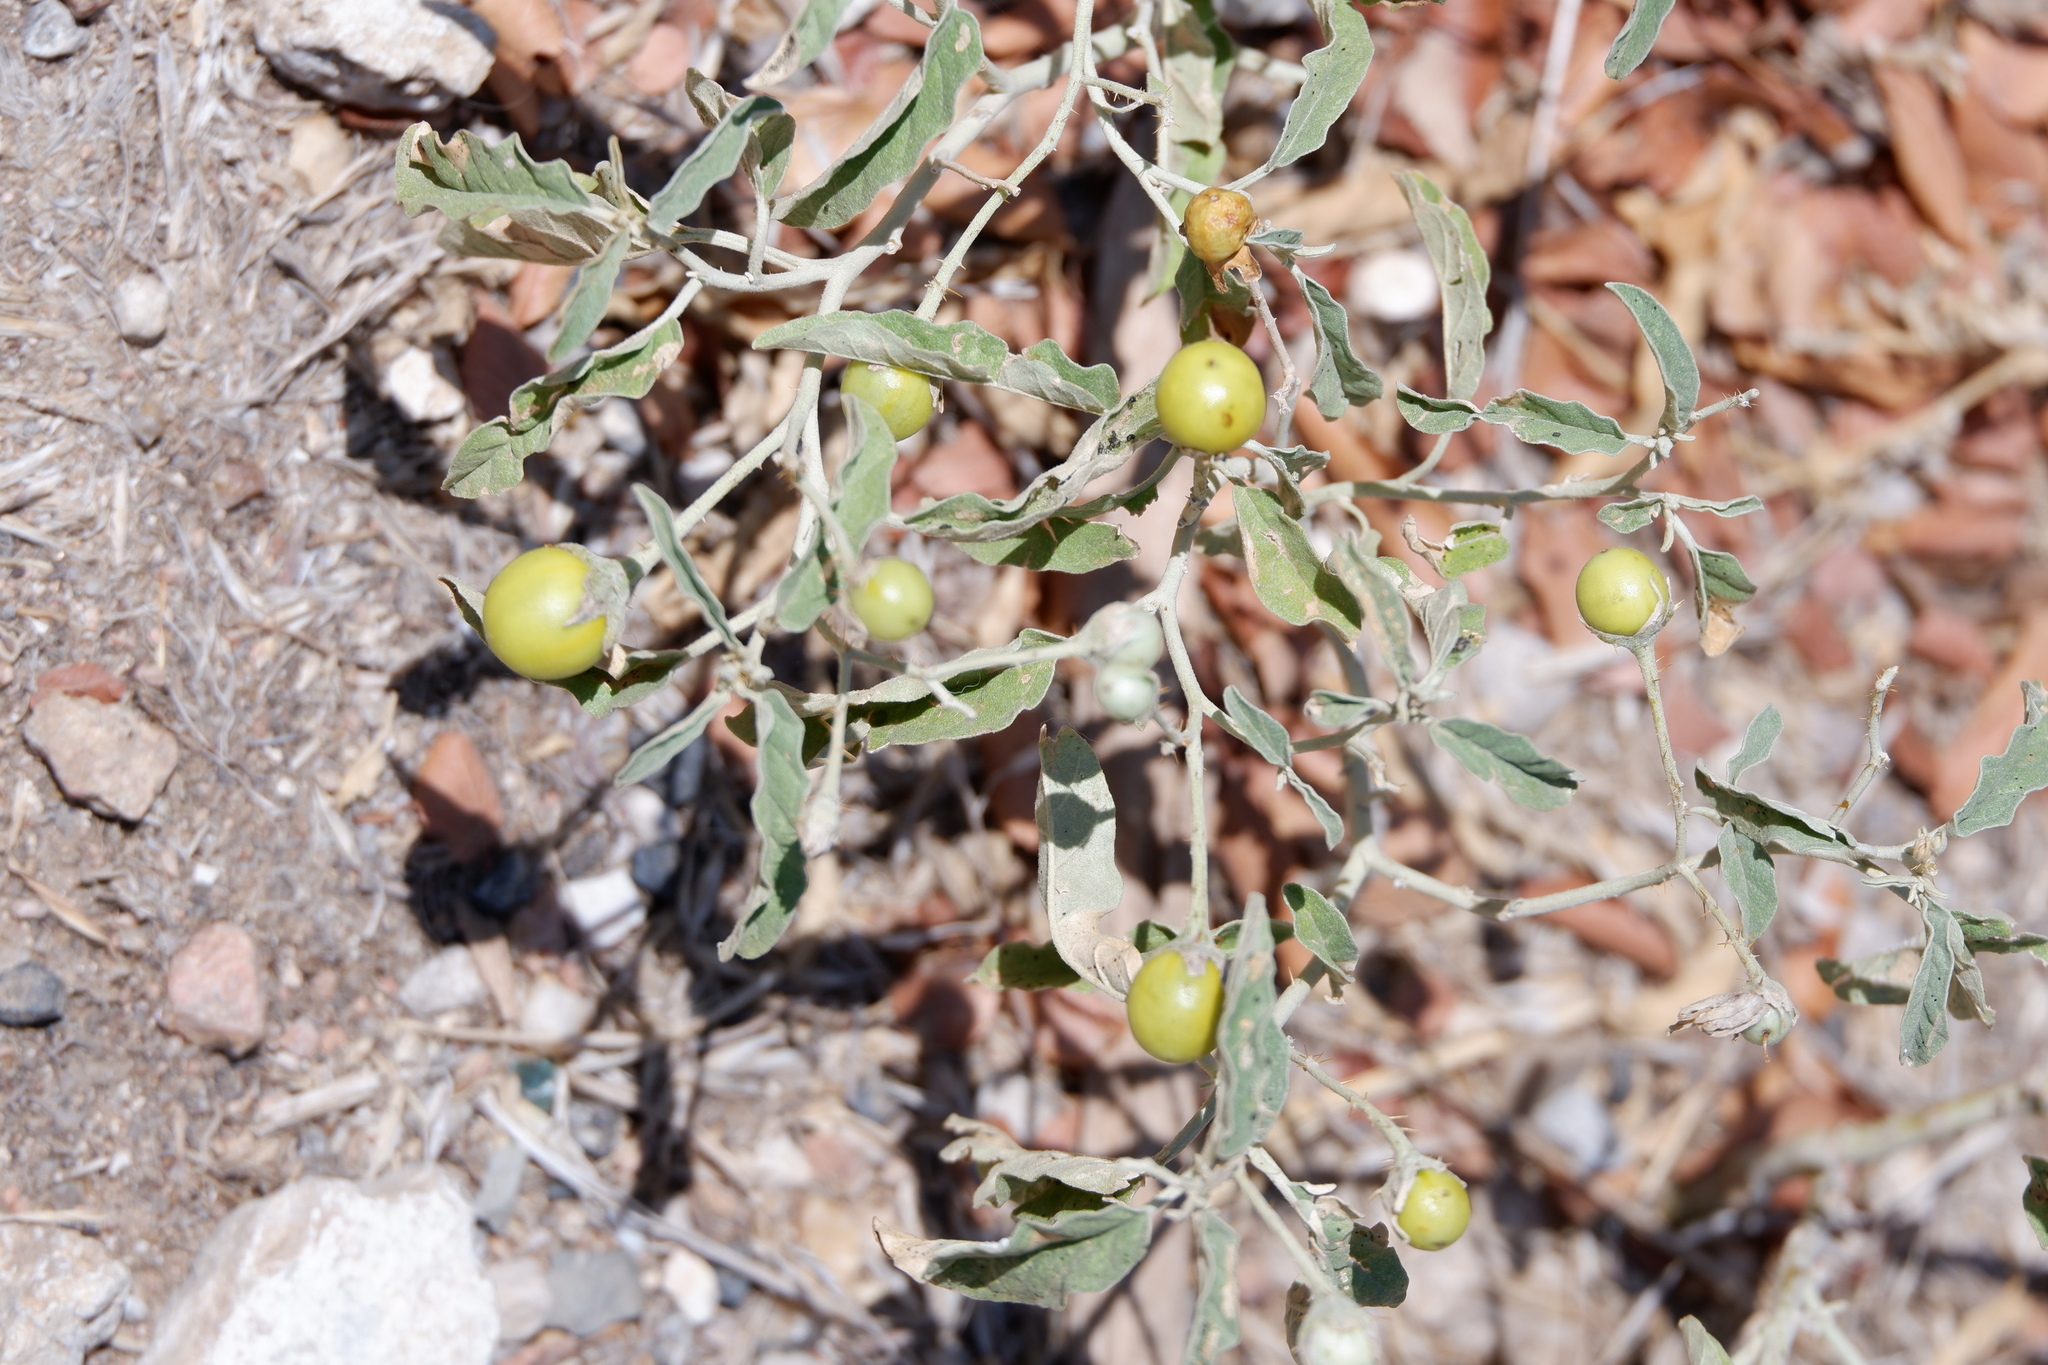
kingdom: Plantae
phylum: Tracheophyta
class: Magnoliopsida
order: Solanales
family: Solanaceae
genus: Solanum
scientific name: Solanum elaeagnifolium
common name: Silverleaf nightshade
